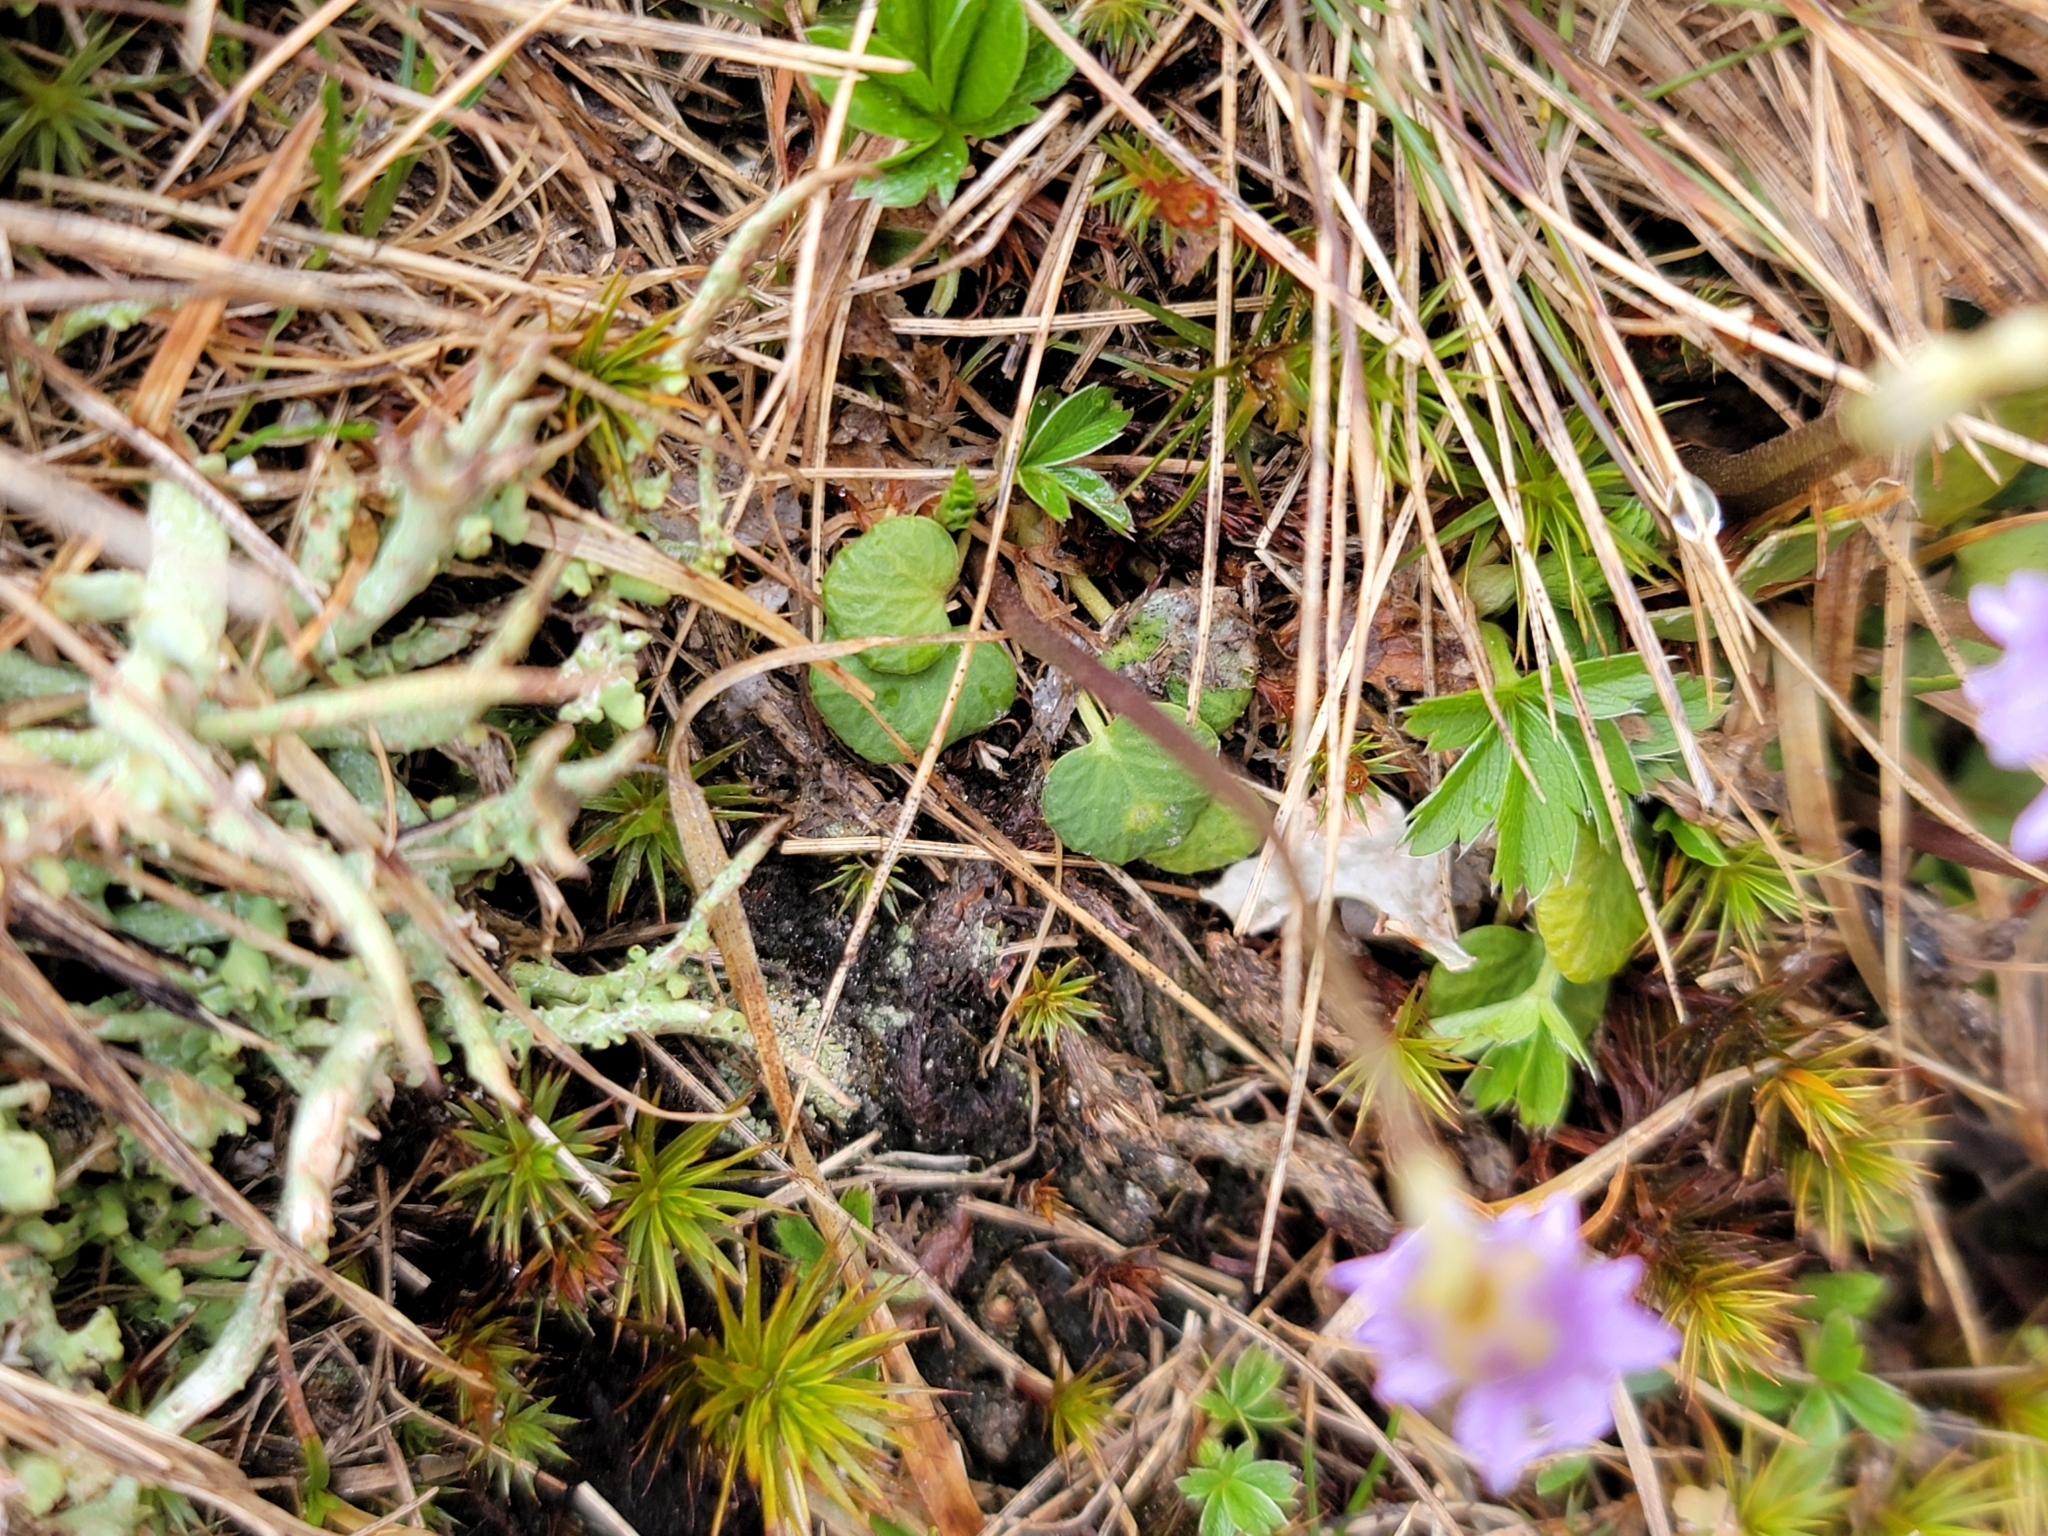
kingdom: Plantae
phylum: Tracheophyta
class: Magnoliopsida
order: Ericales
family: Primulaceae
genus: Soldanella
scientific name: Soldanella pusilla
